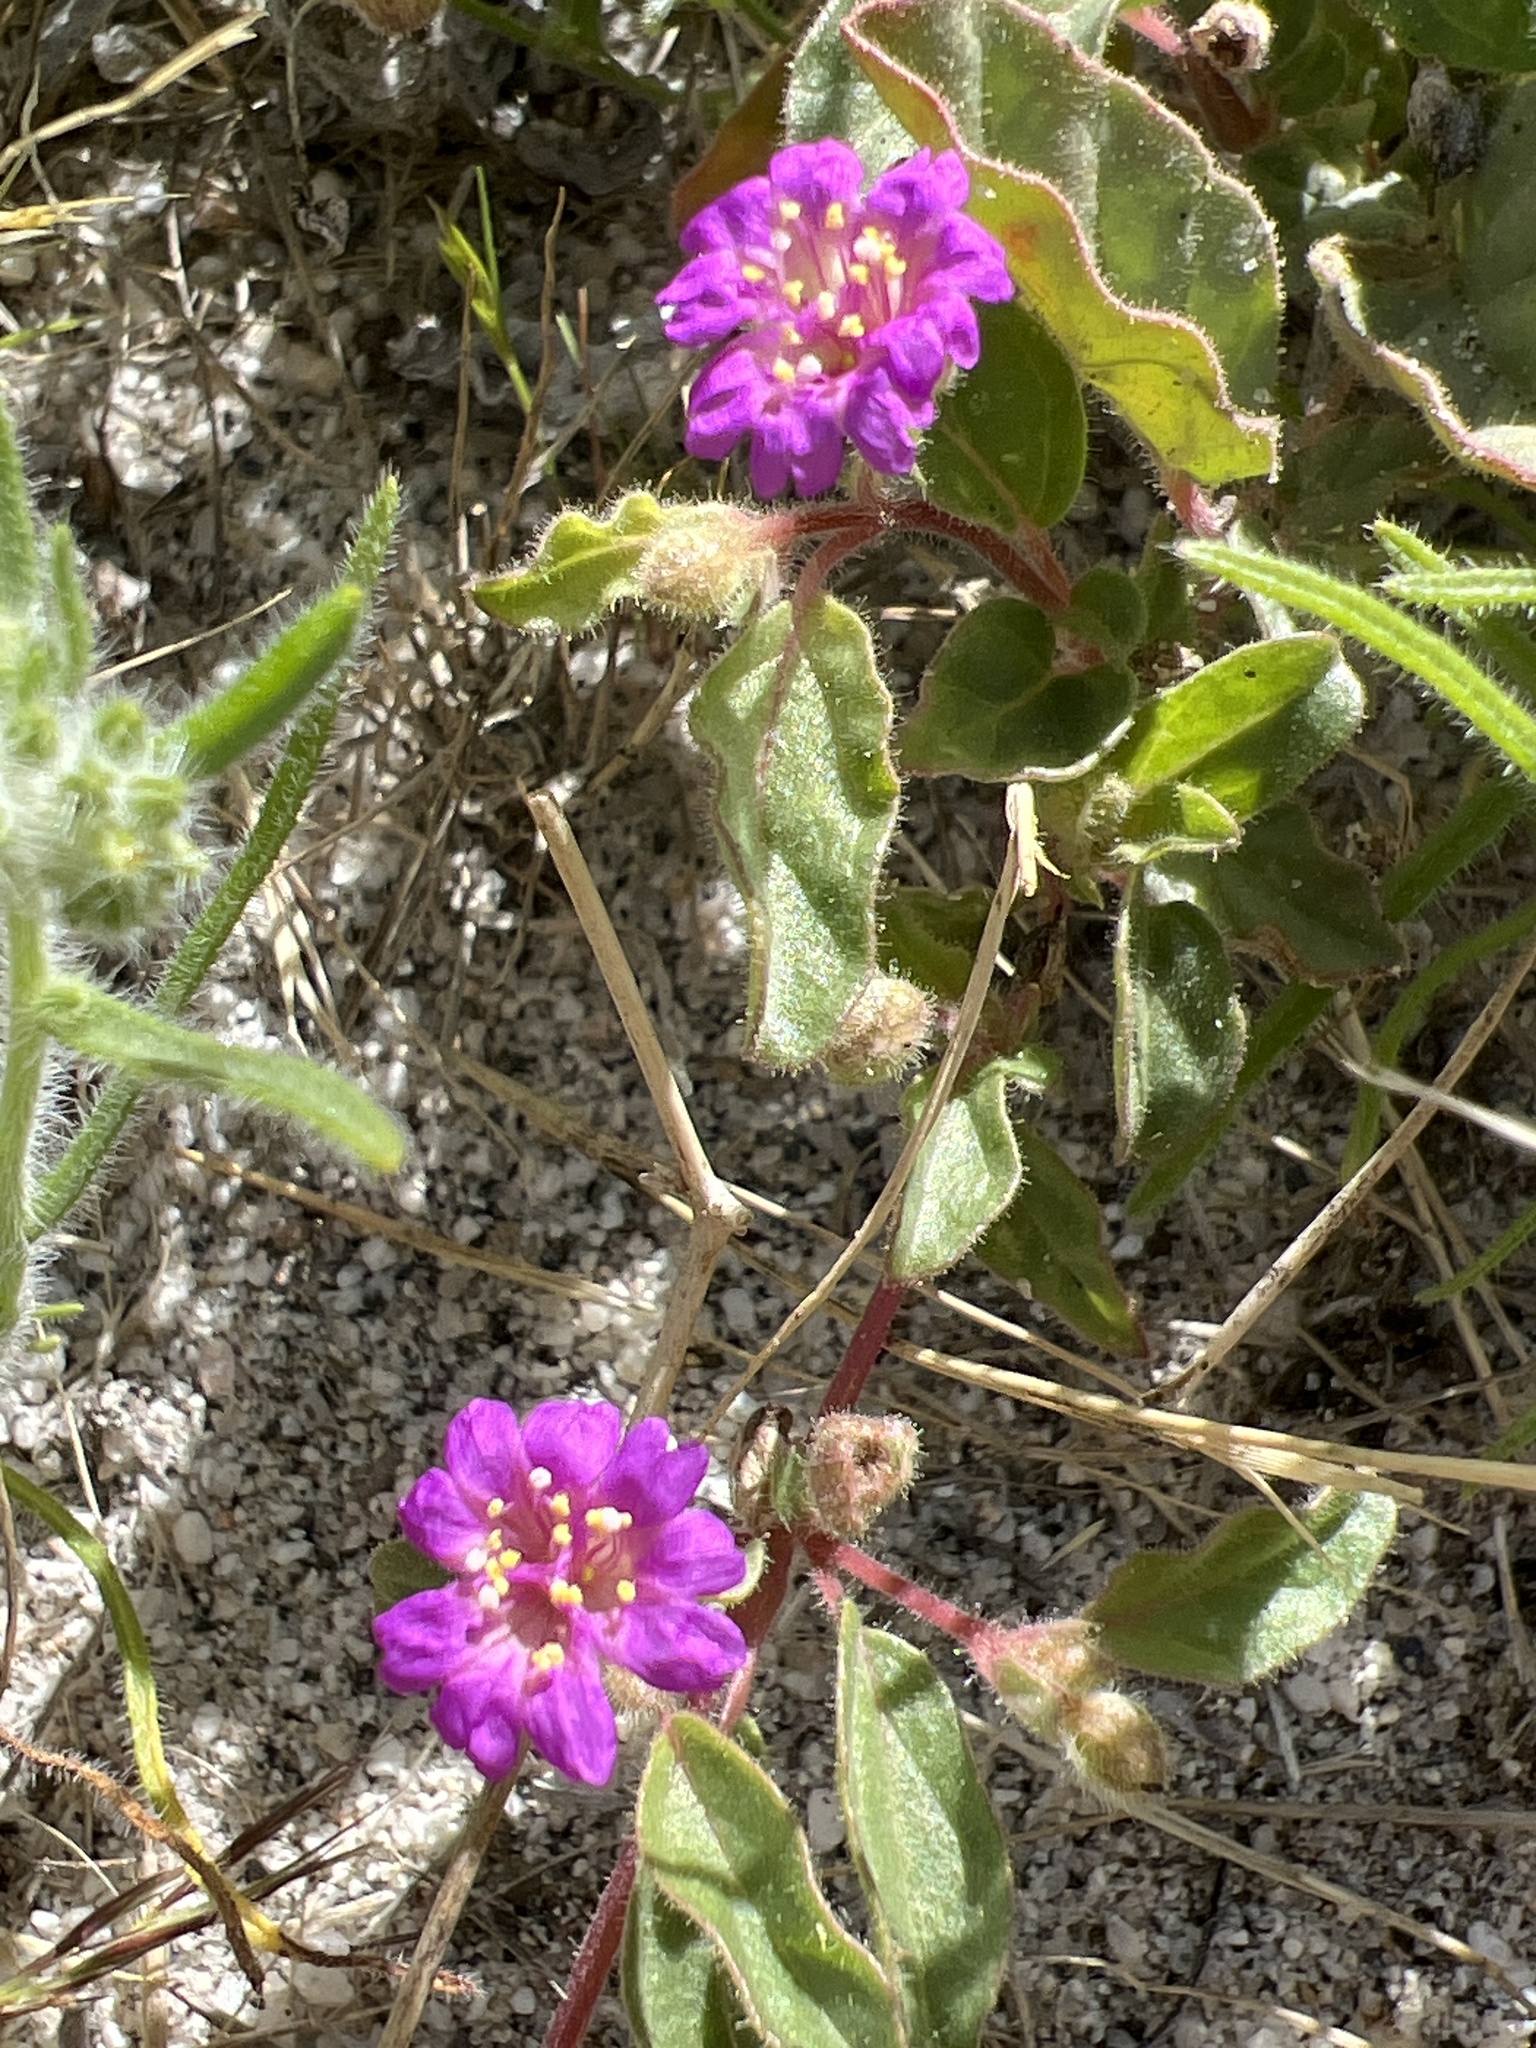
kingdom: Plantae
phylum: Tracheophyta
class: Magnoliopsida
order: Caryophyllales
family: Nyctaginaceae
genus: Allionia
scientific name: Allionia incarnata
